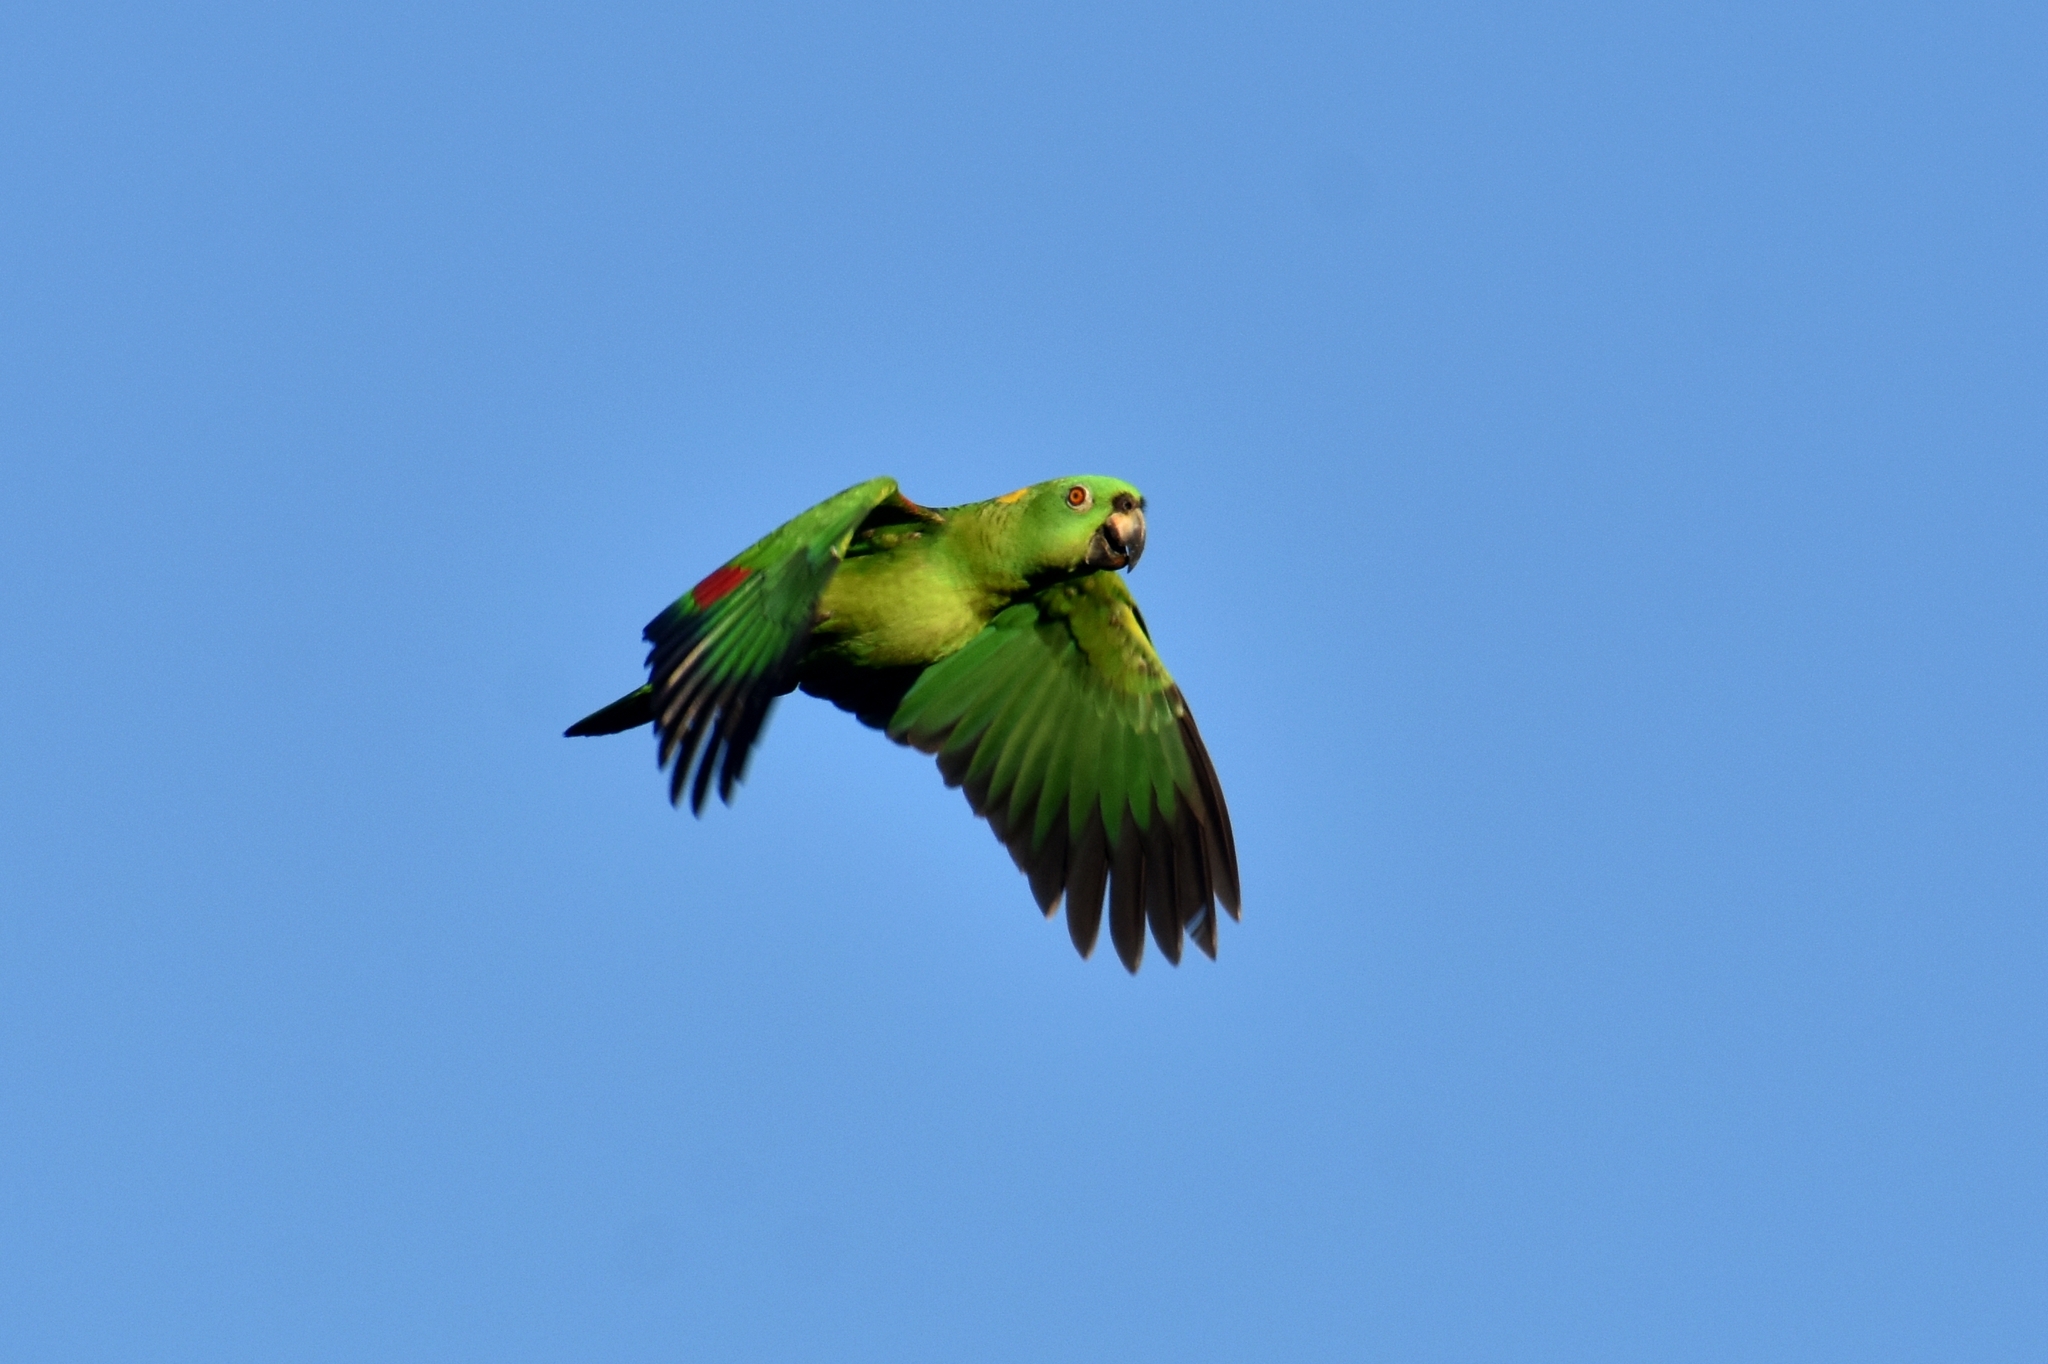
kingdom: Animalia
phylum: Chordata
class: Aves
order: Psittaciformes
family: Psittacidae
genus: Amazona
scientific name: Amazona auropalliata
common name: Yellow-naped amazon
